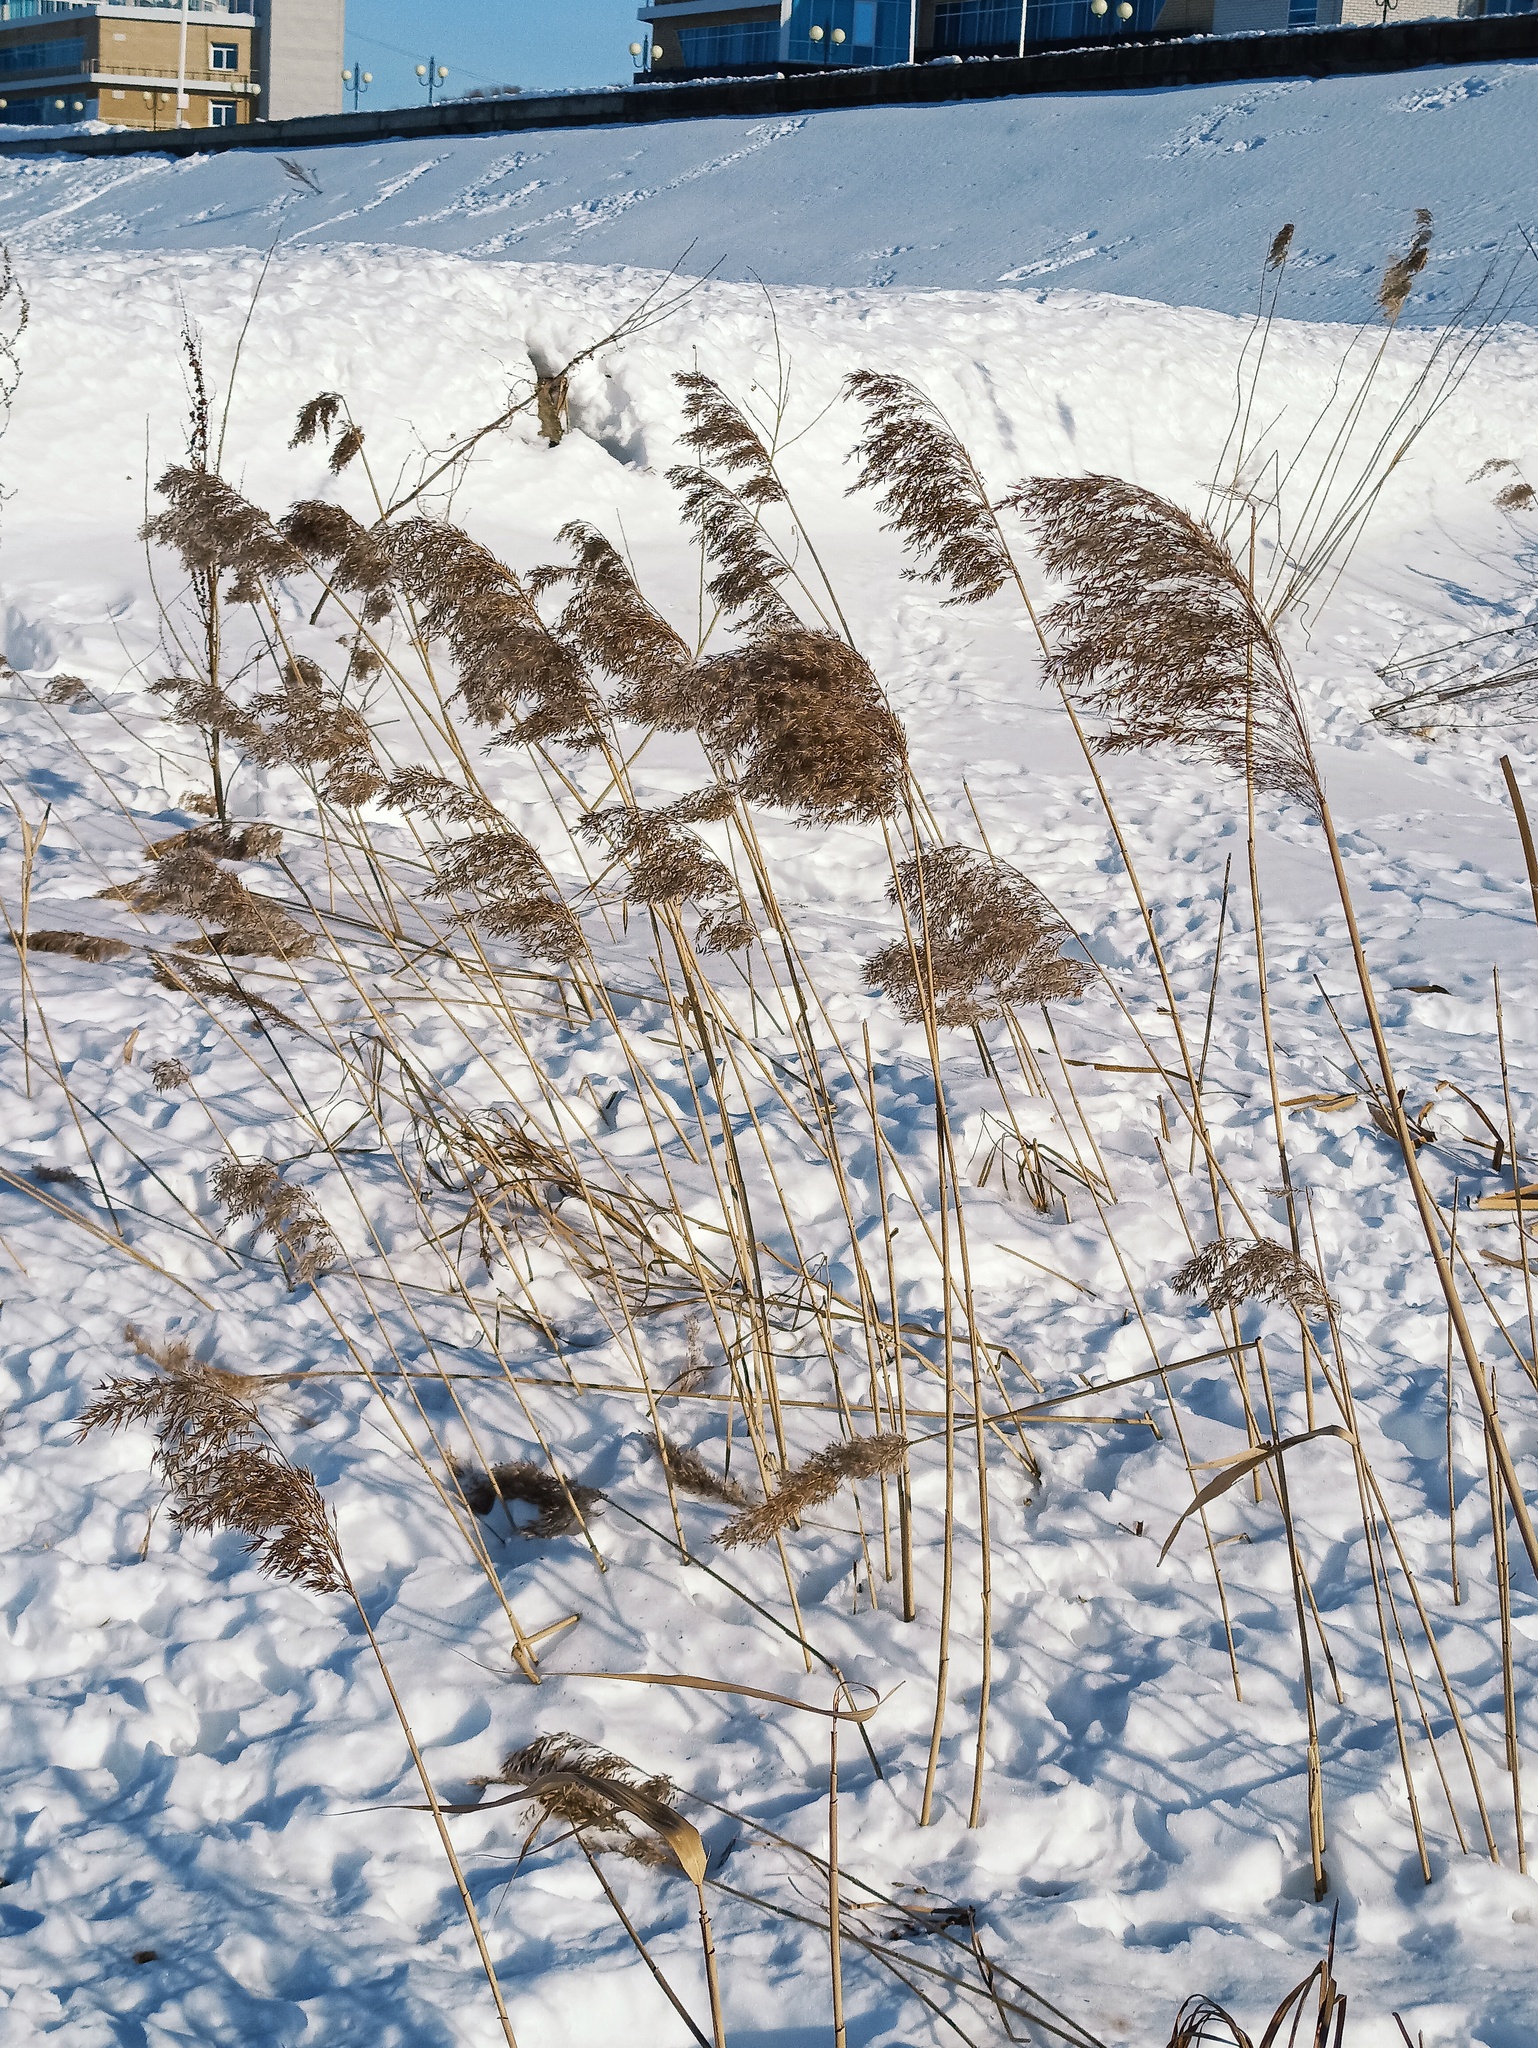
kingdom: Plantae
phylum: Tracheophyta
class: Liliopsida
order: Poales
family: Poaceae
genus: Phragmites
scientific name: Phragmites australis
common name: Common reed
